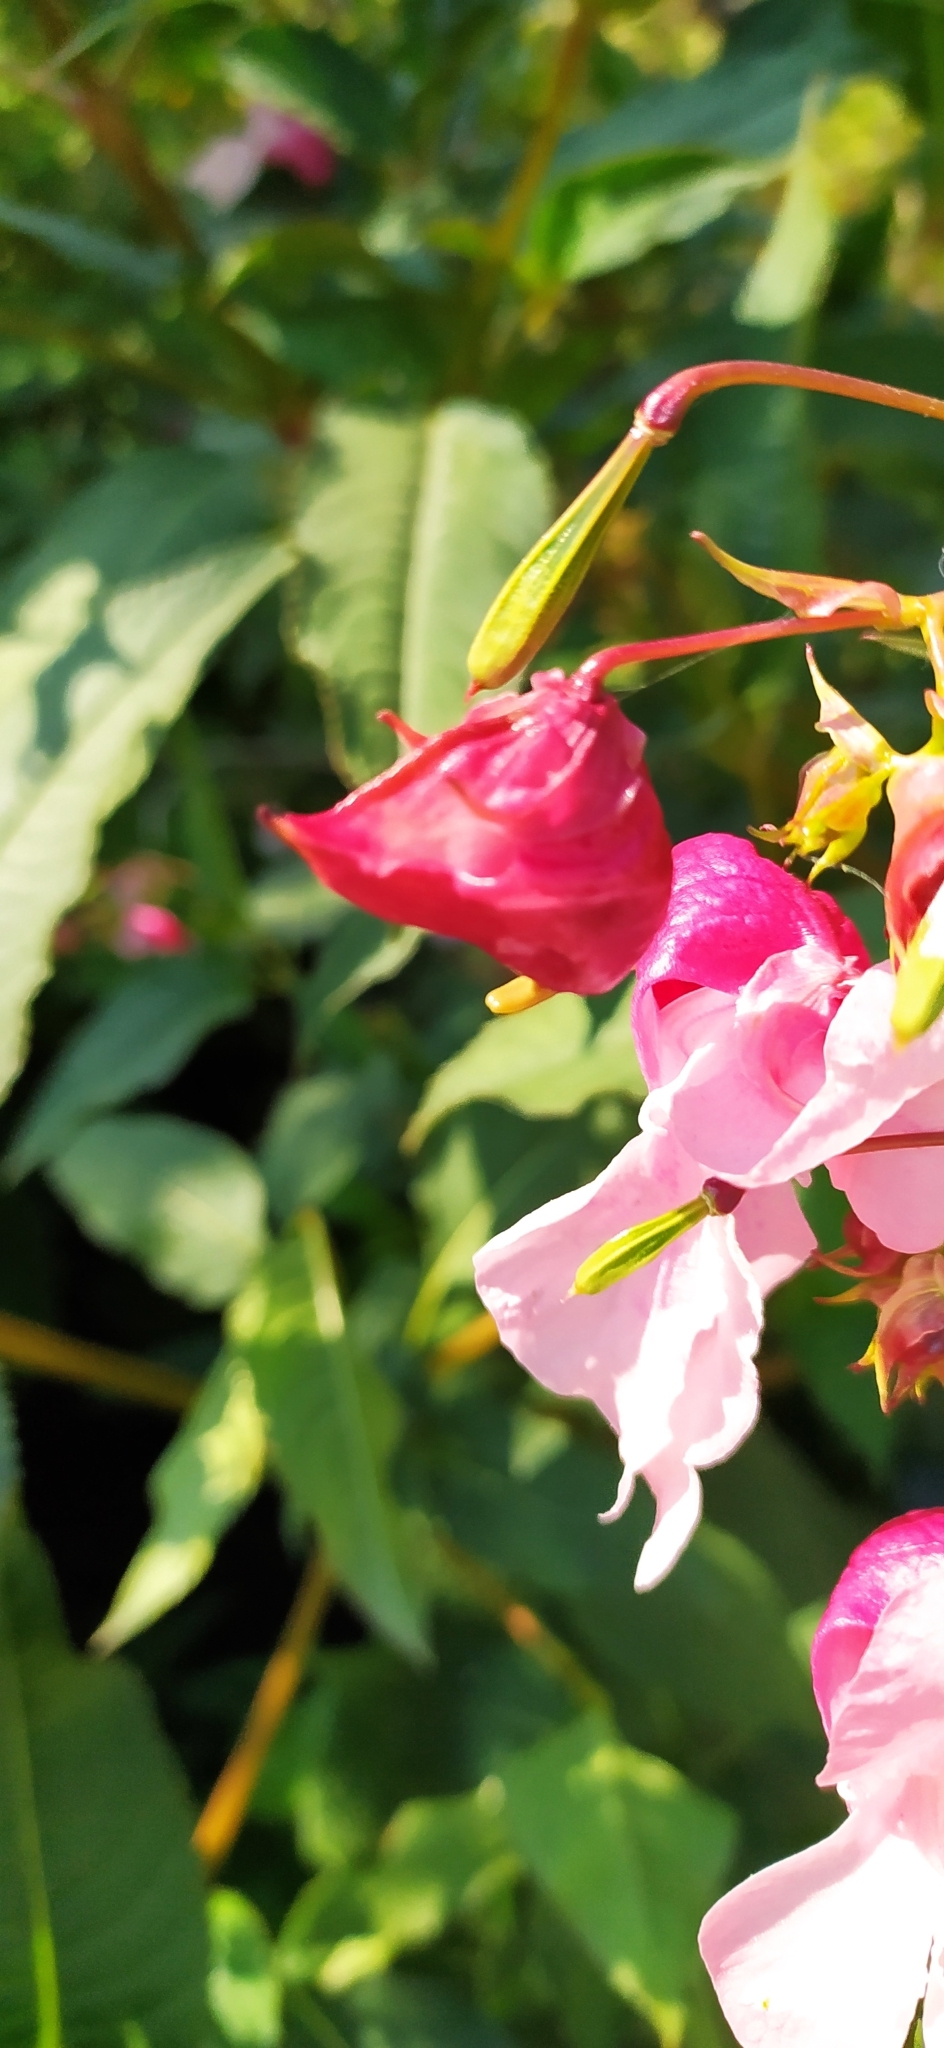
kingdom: Plantae
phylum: Tracheophyta
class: Magnoliopsida
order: Ericales
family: Balsaminaceae
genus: Impatiens
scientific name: Impatiens glandulifera
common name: Himalayan balsam
